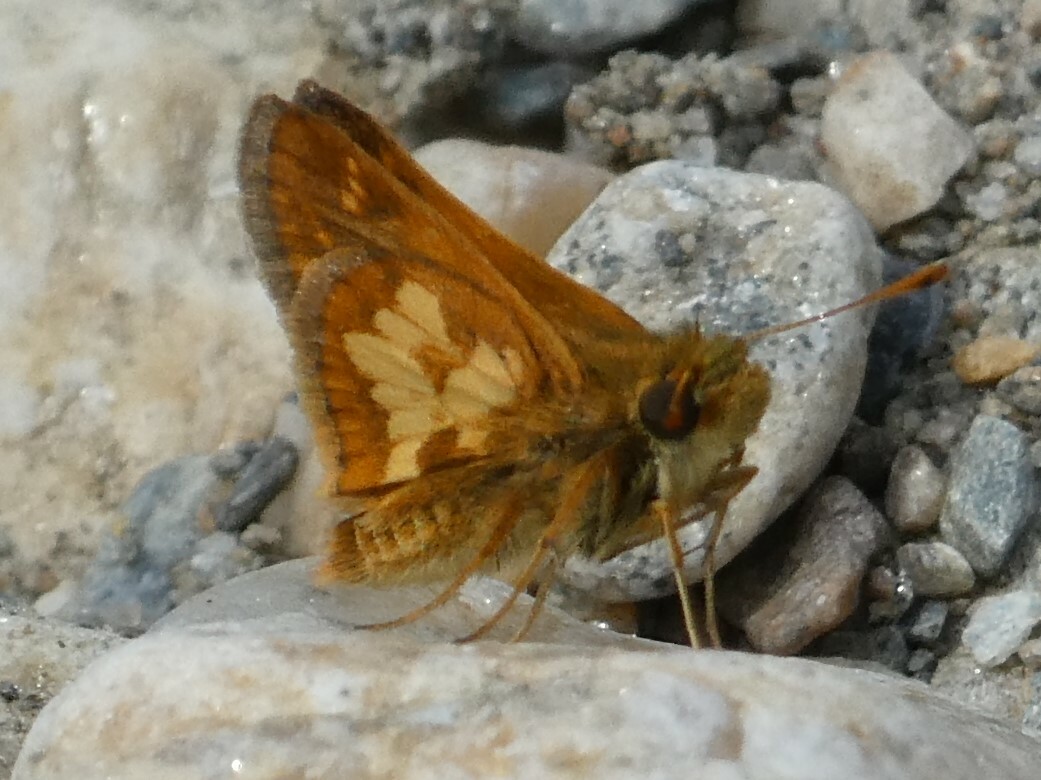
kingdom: Animalia
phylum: Arthropoda
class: Insecta
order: Lepidoptera
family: Hesperiidae
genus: Polites
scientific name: Polites coras
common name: Peck's skipper
